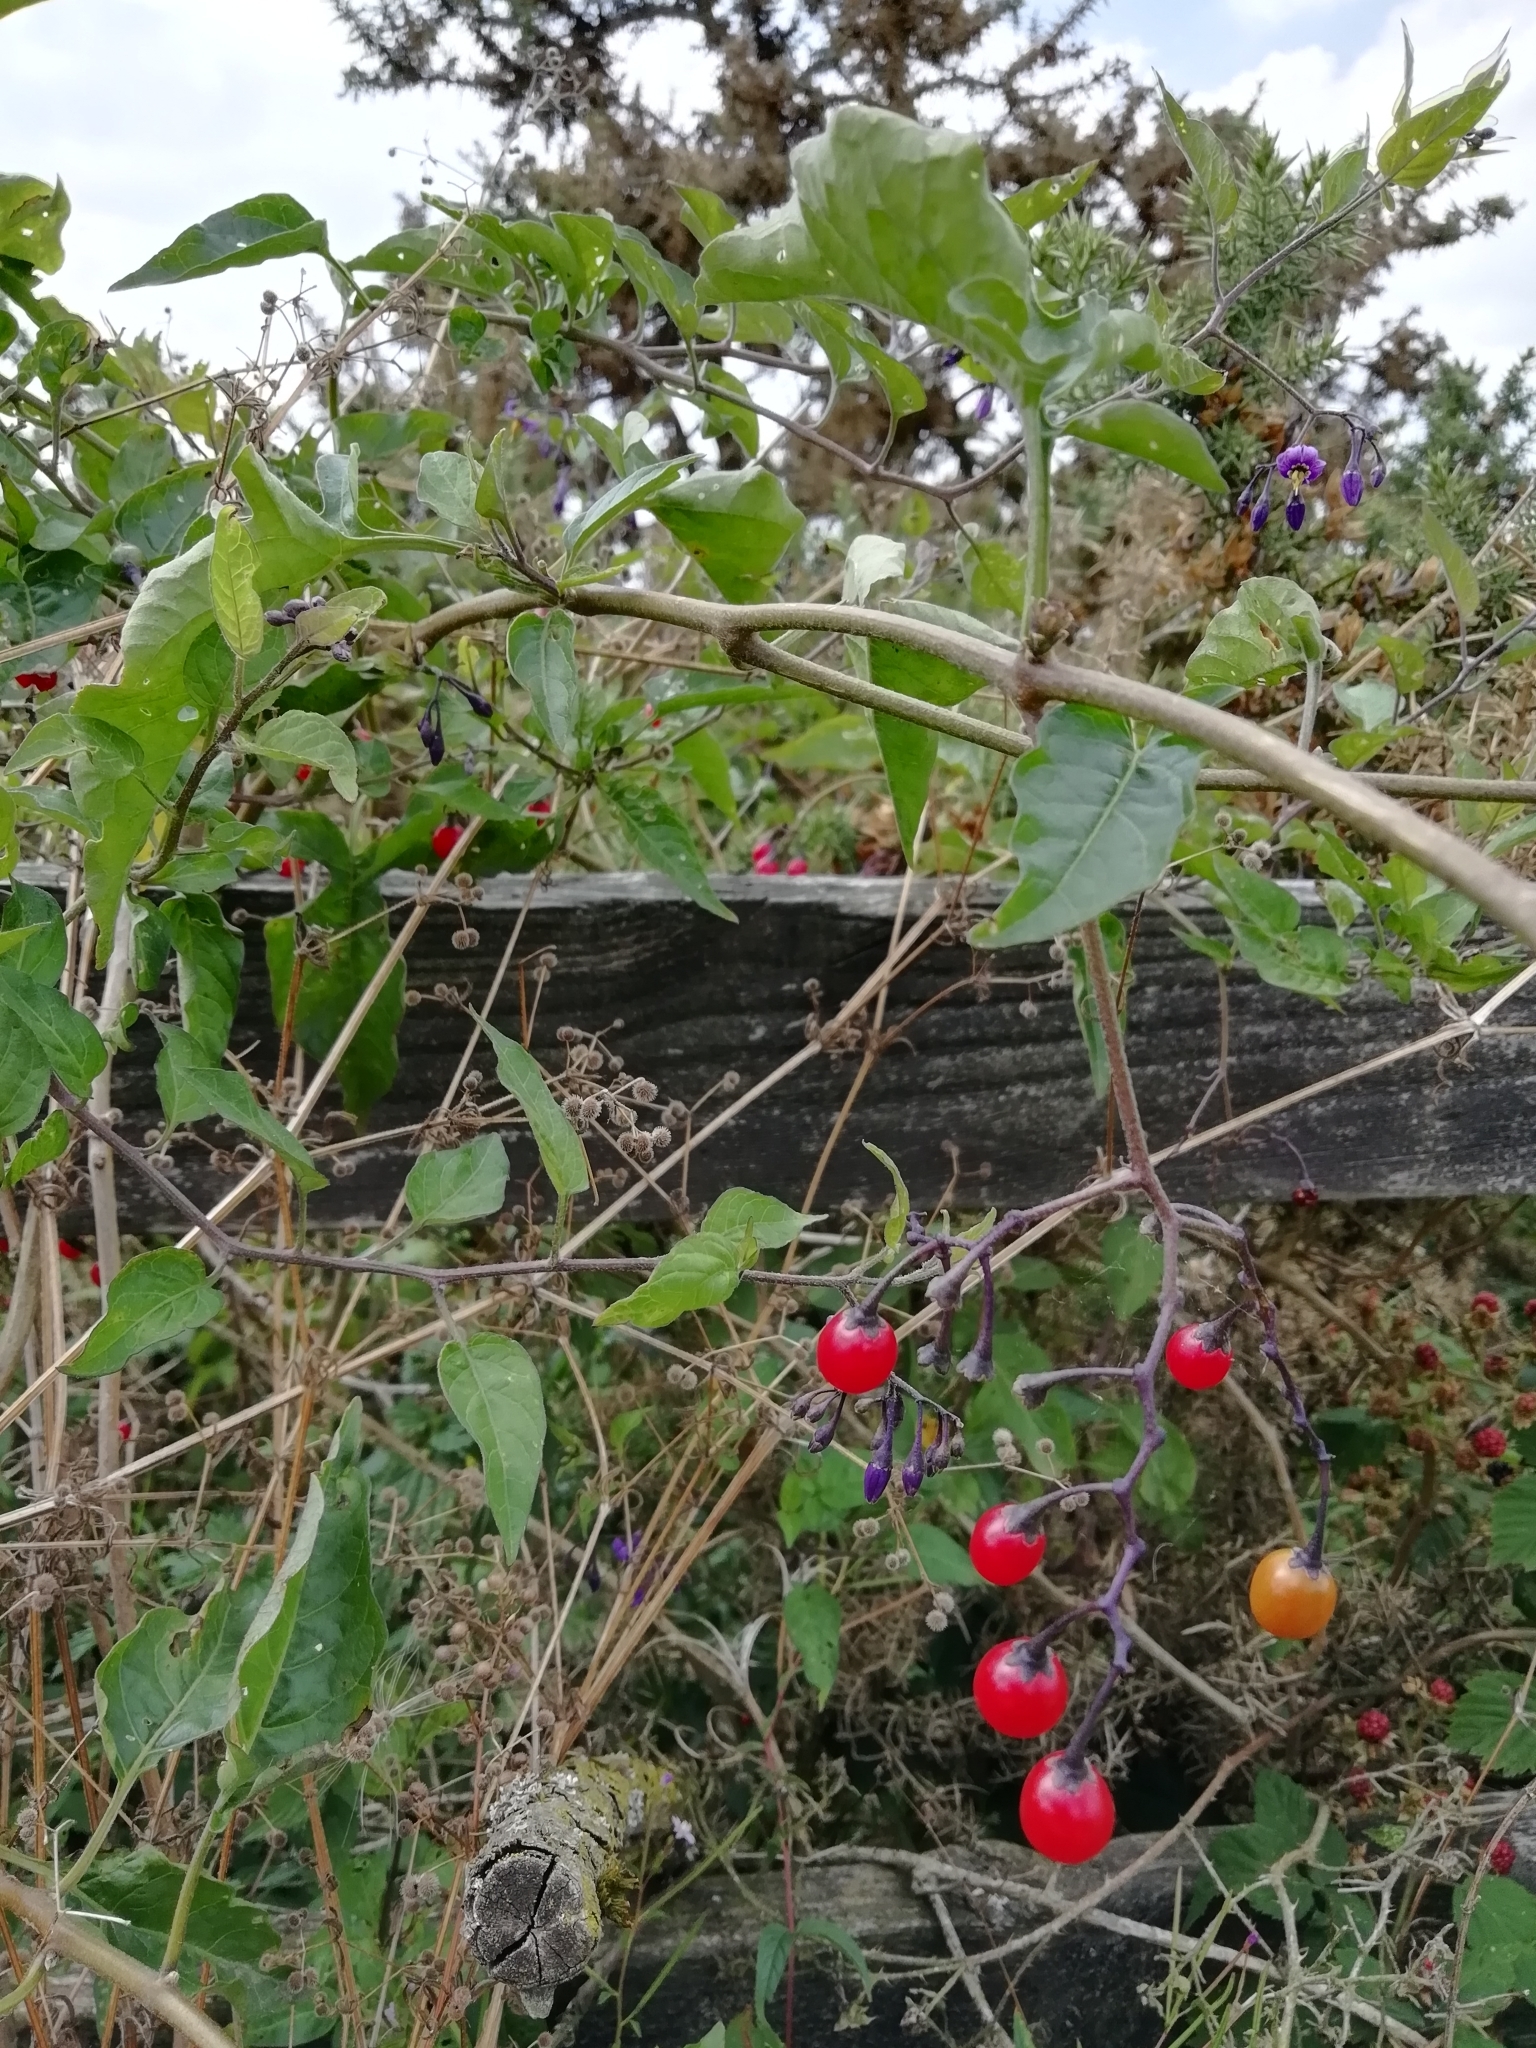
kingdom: Plantae
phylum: Tracheophyta
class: Magnoliopsida
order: Solanales
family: Solanaceae
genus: Solanum
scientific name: Solanum dulcamara
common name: Climbing nightshade
